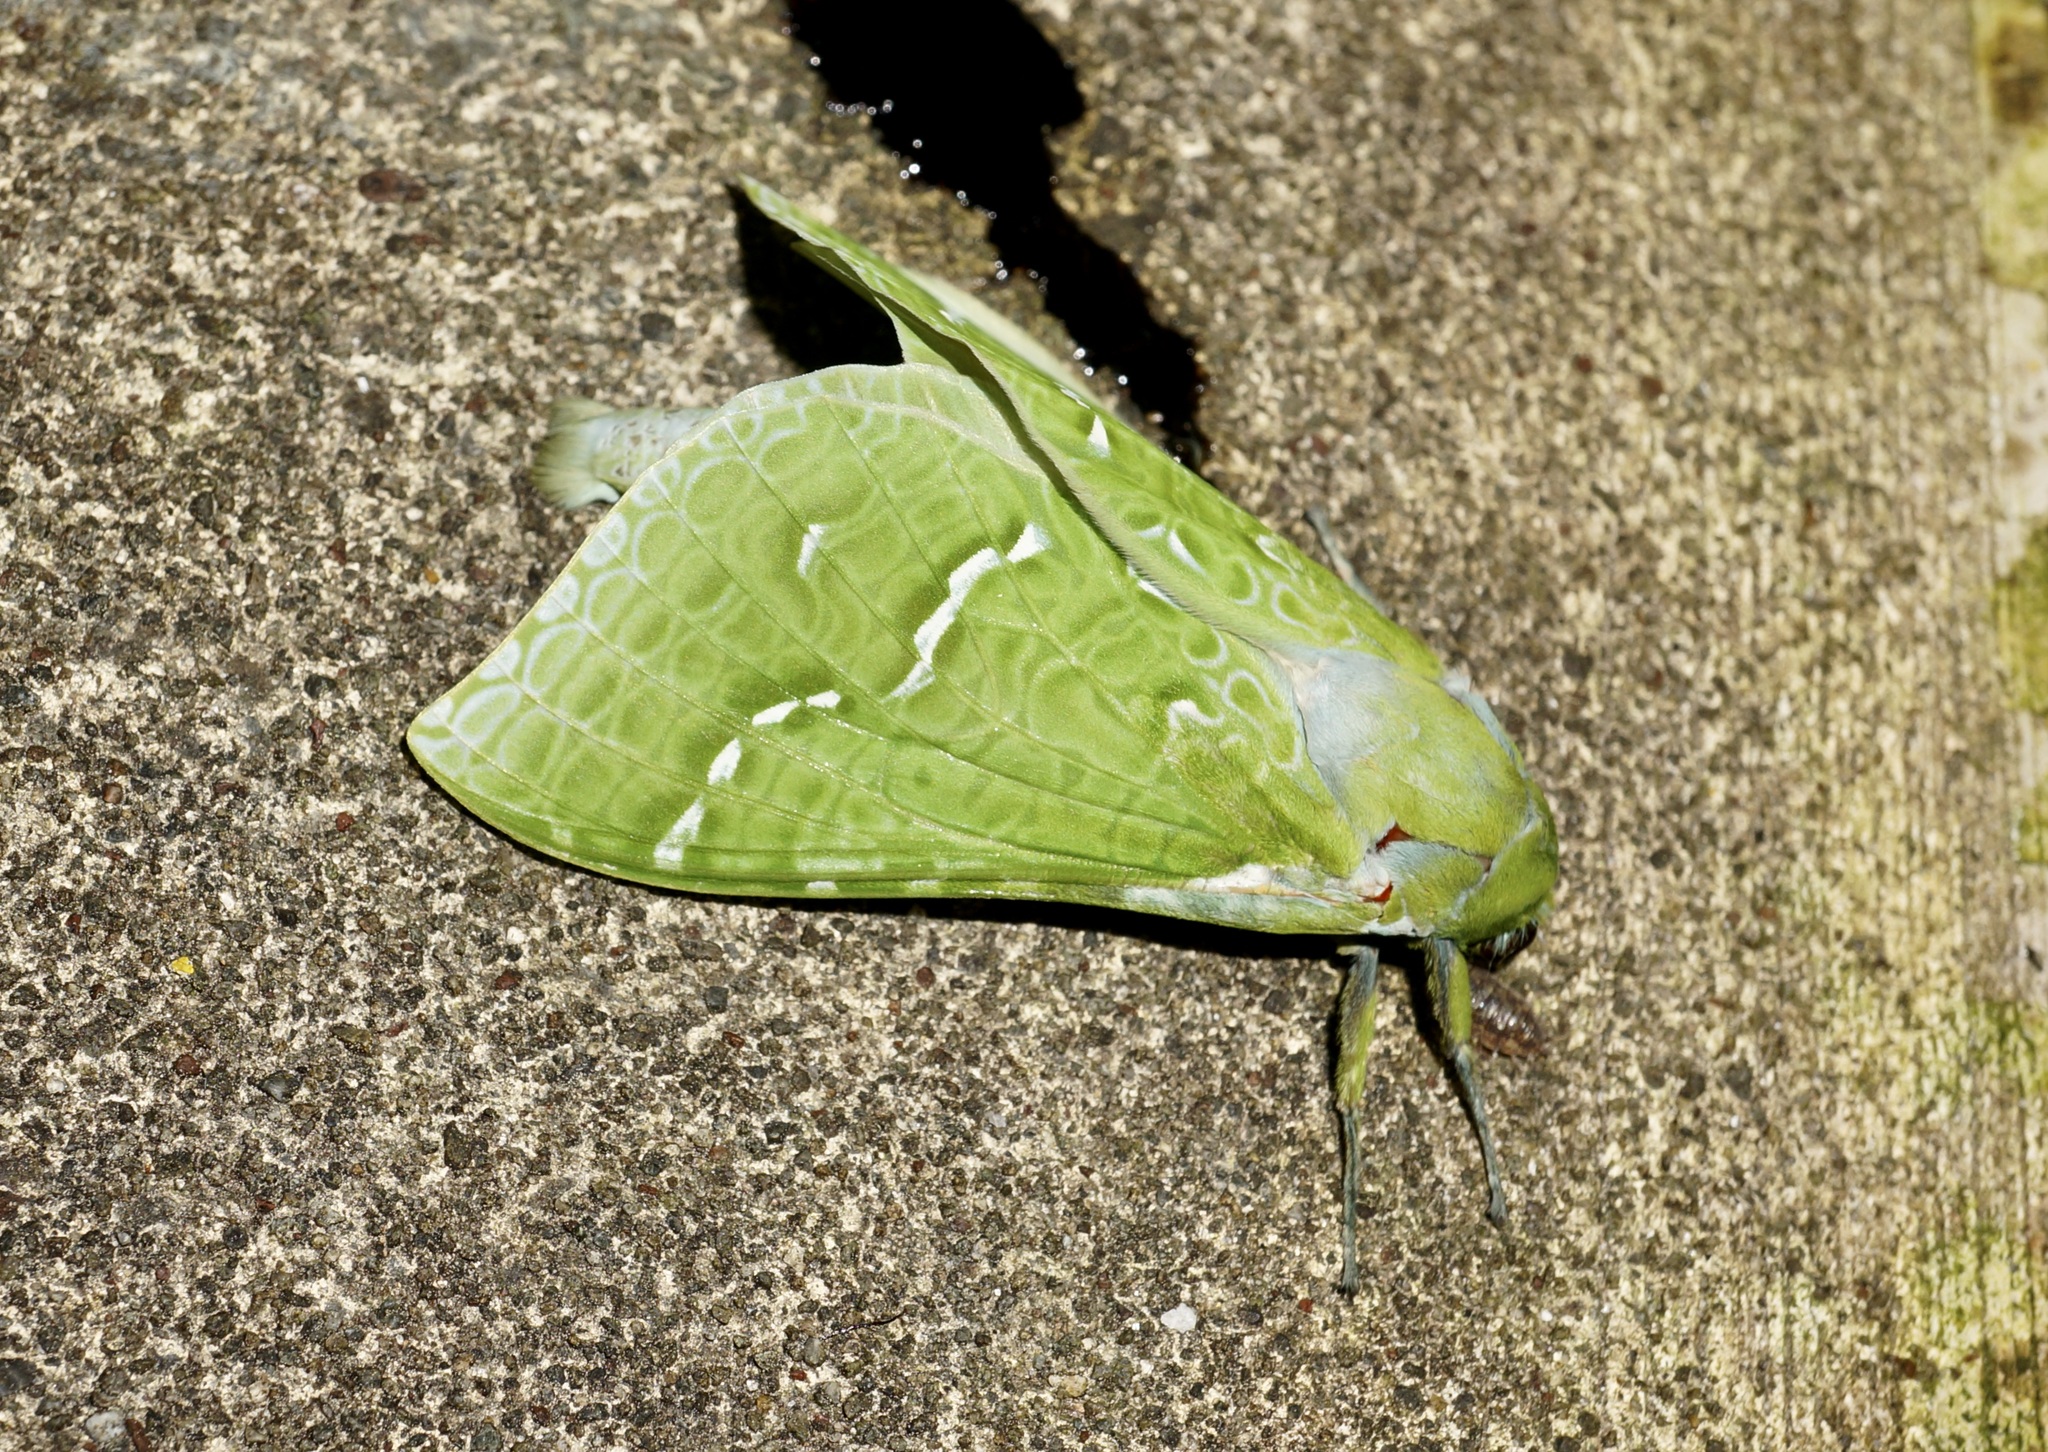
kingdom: Animalia
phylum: Arthropoda
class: Insecta
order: Lepidoptera
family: Hepialidae
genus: Aenetus
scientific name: Aenetus virescens
